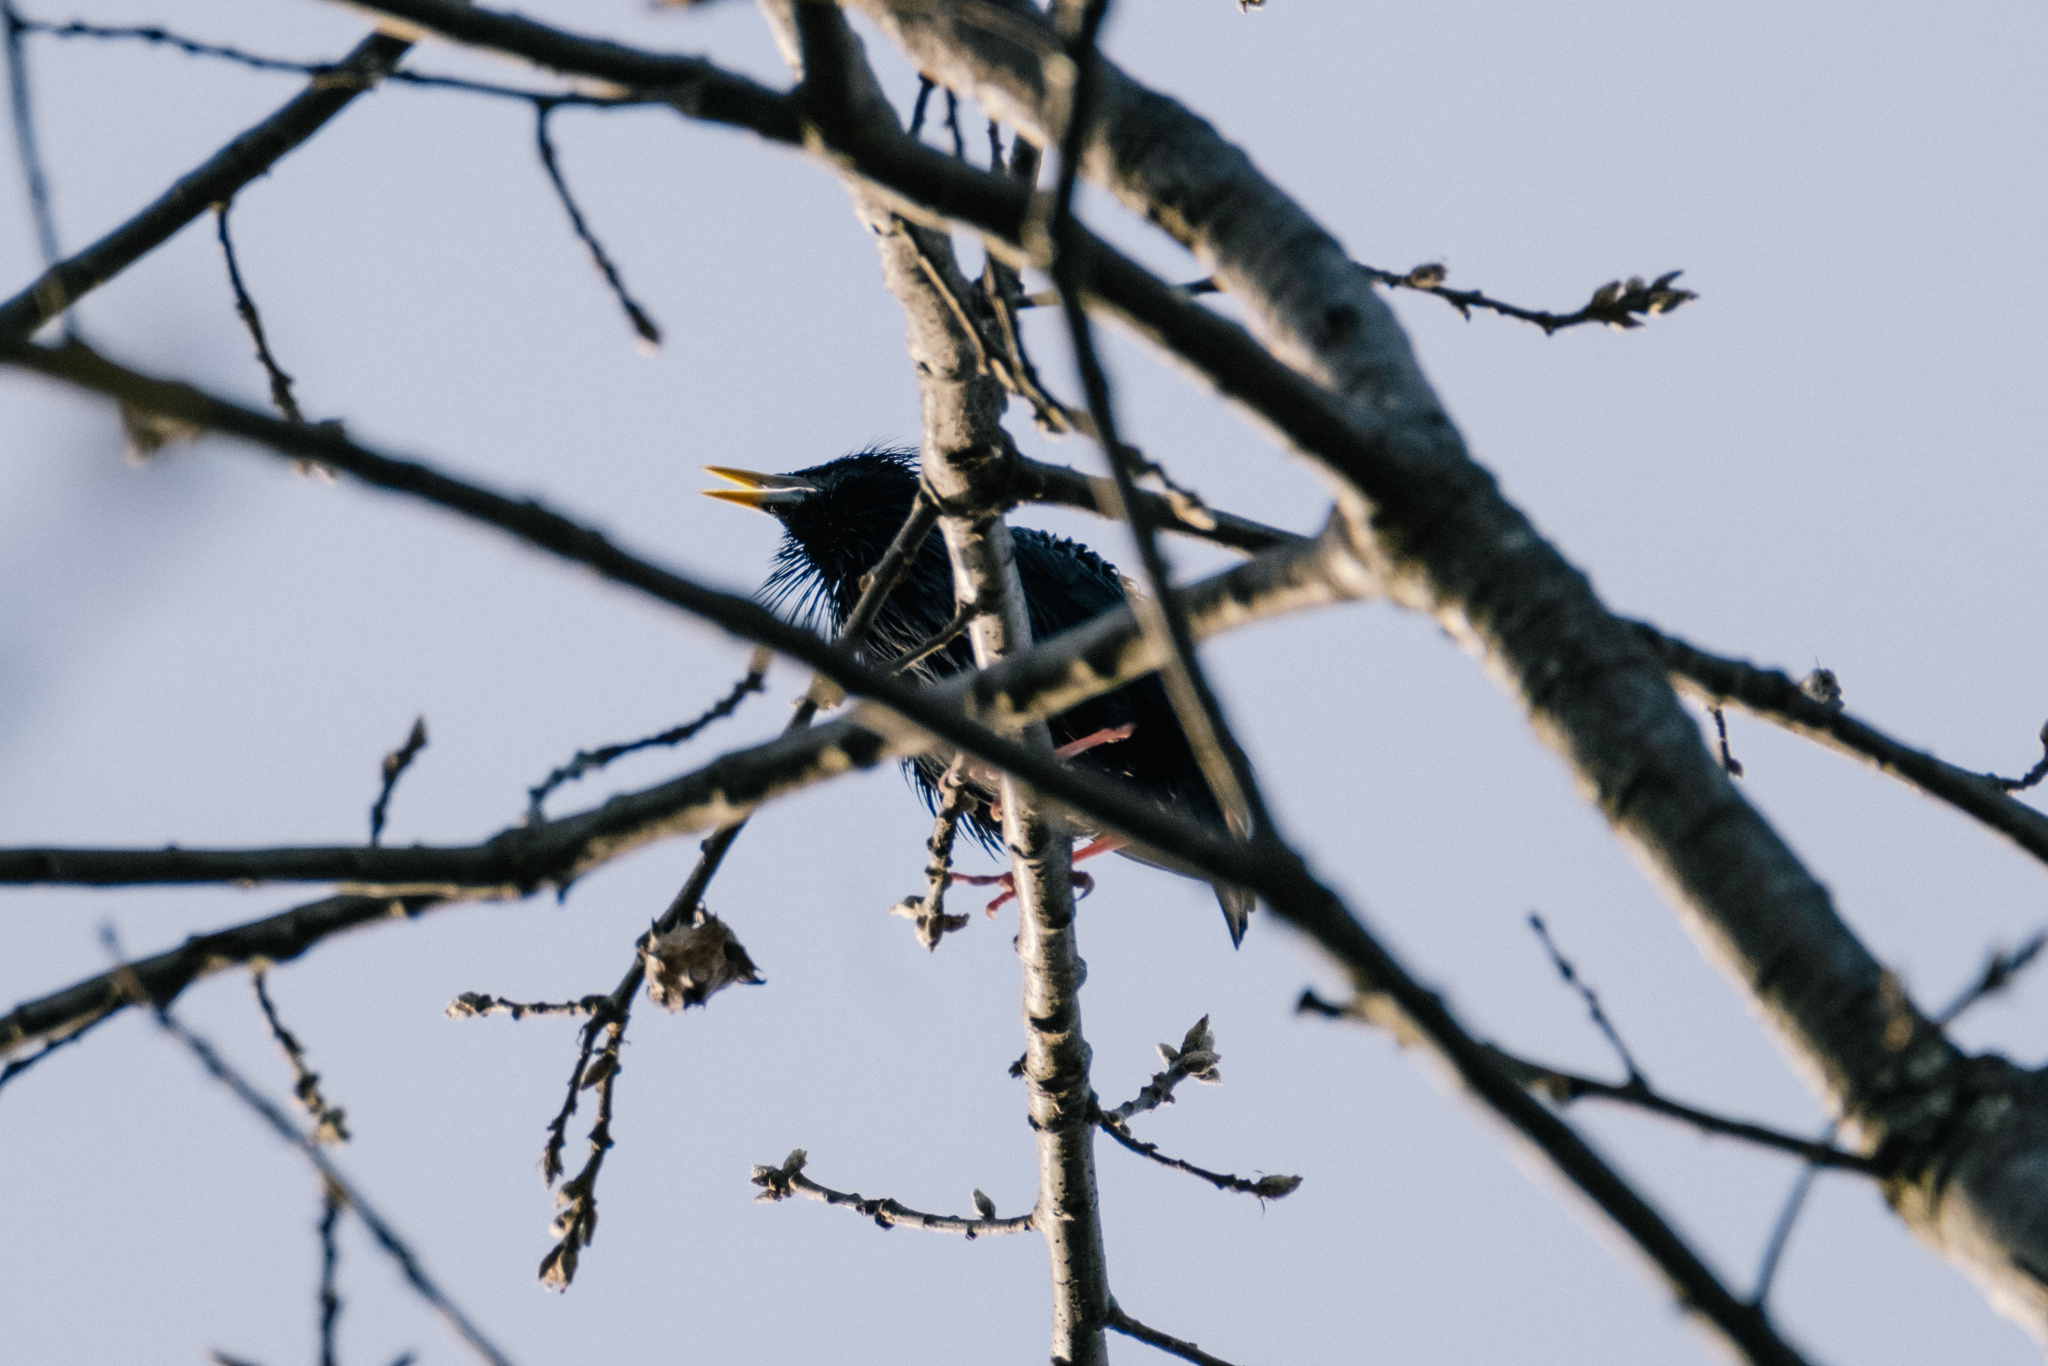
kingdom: Animalia
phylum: Chordata
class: Aves
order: Passeriformes
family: Sturnidae
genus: Sturnus
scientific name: Sturnus unicolor
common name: Spotless starling
